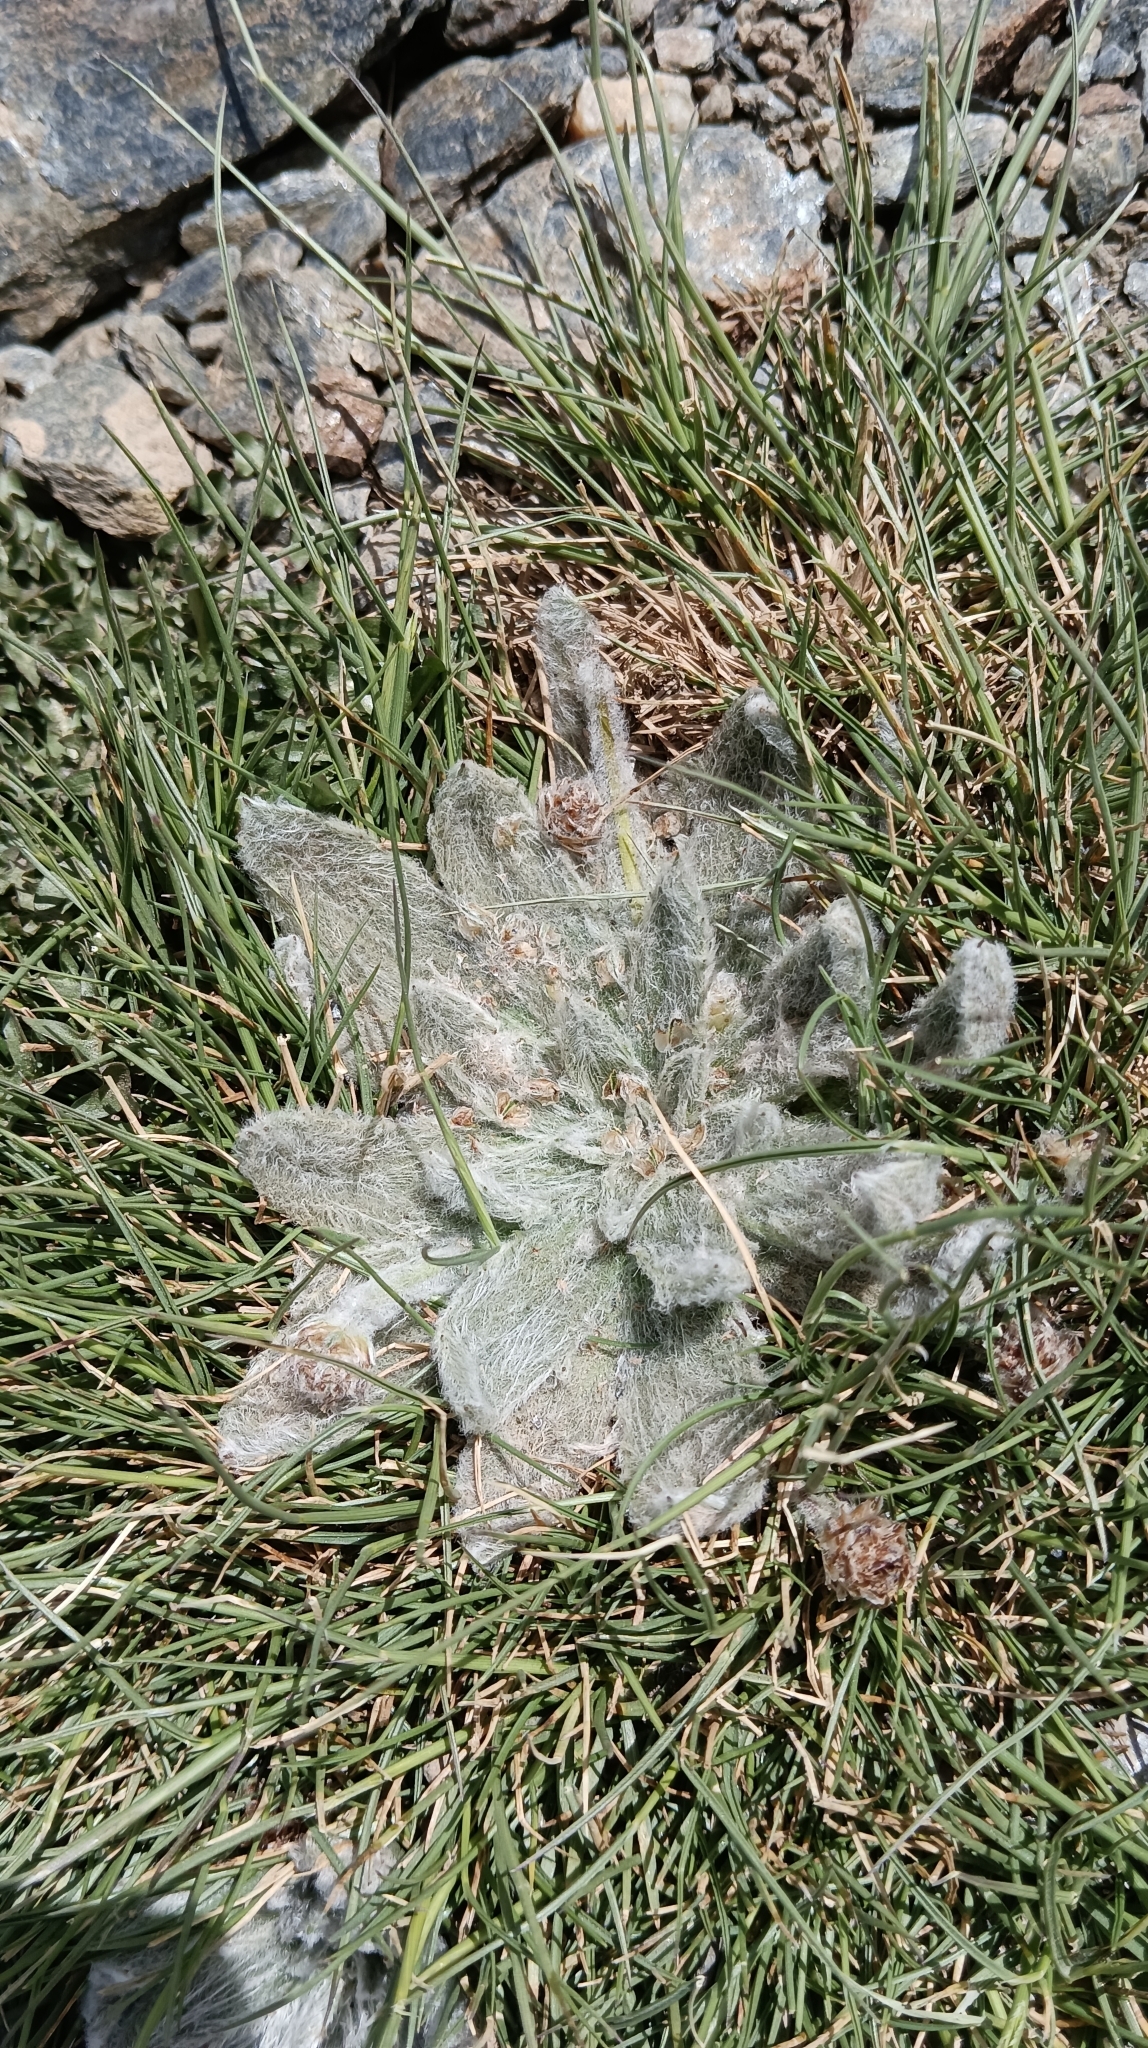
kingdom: Plantae
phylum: Tracheophyta
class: Magnoliopsida
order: Lamiales
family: Plantaginaceae
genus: Plantago
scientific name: Plantago nivalis
